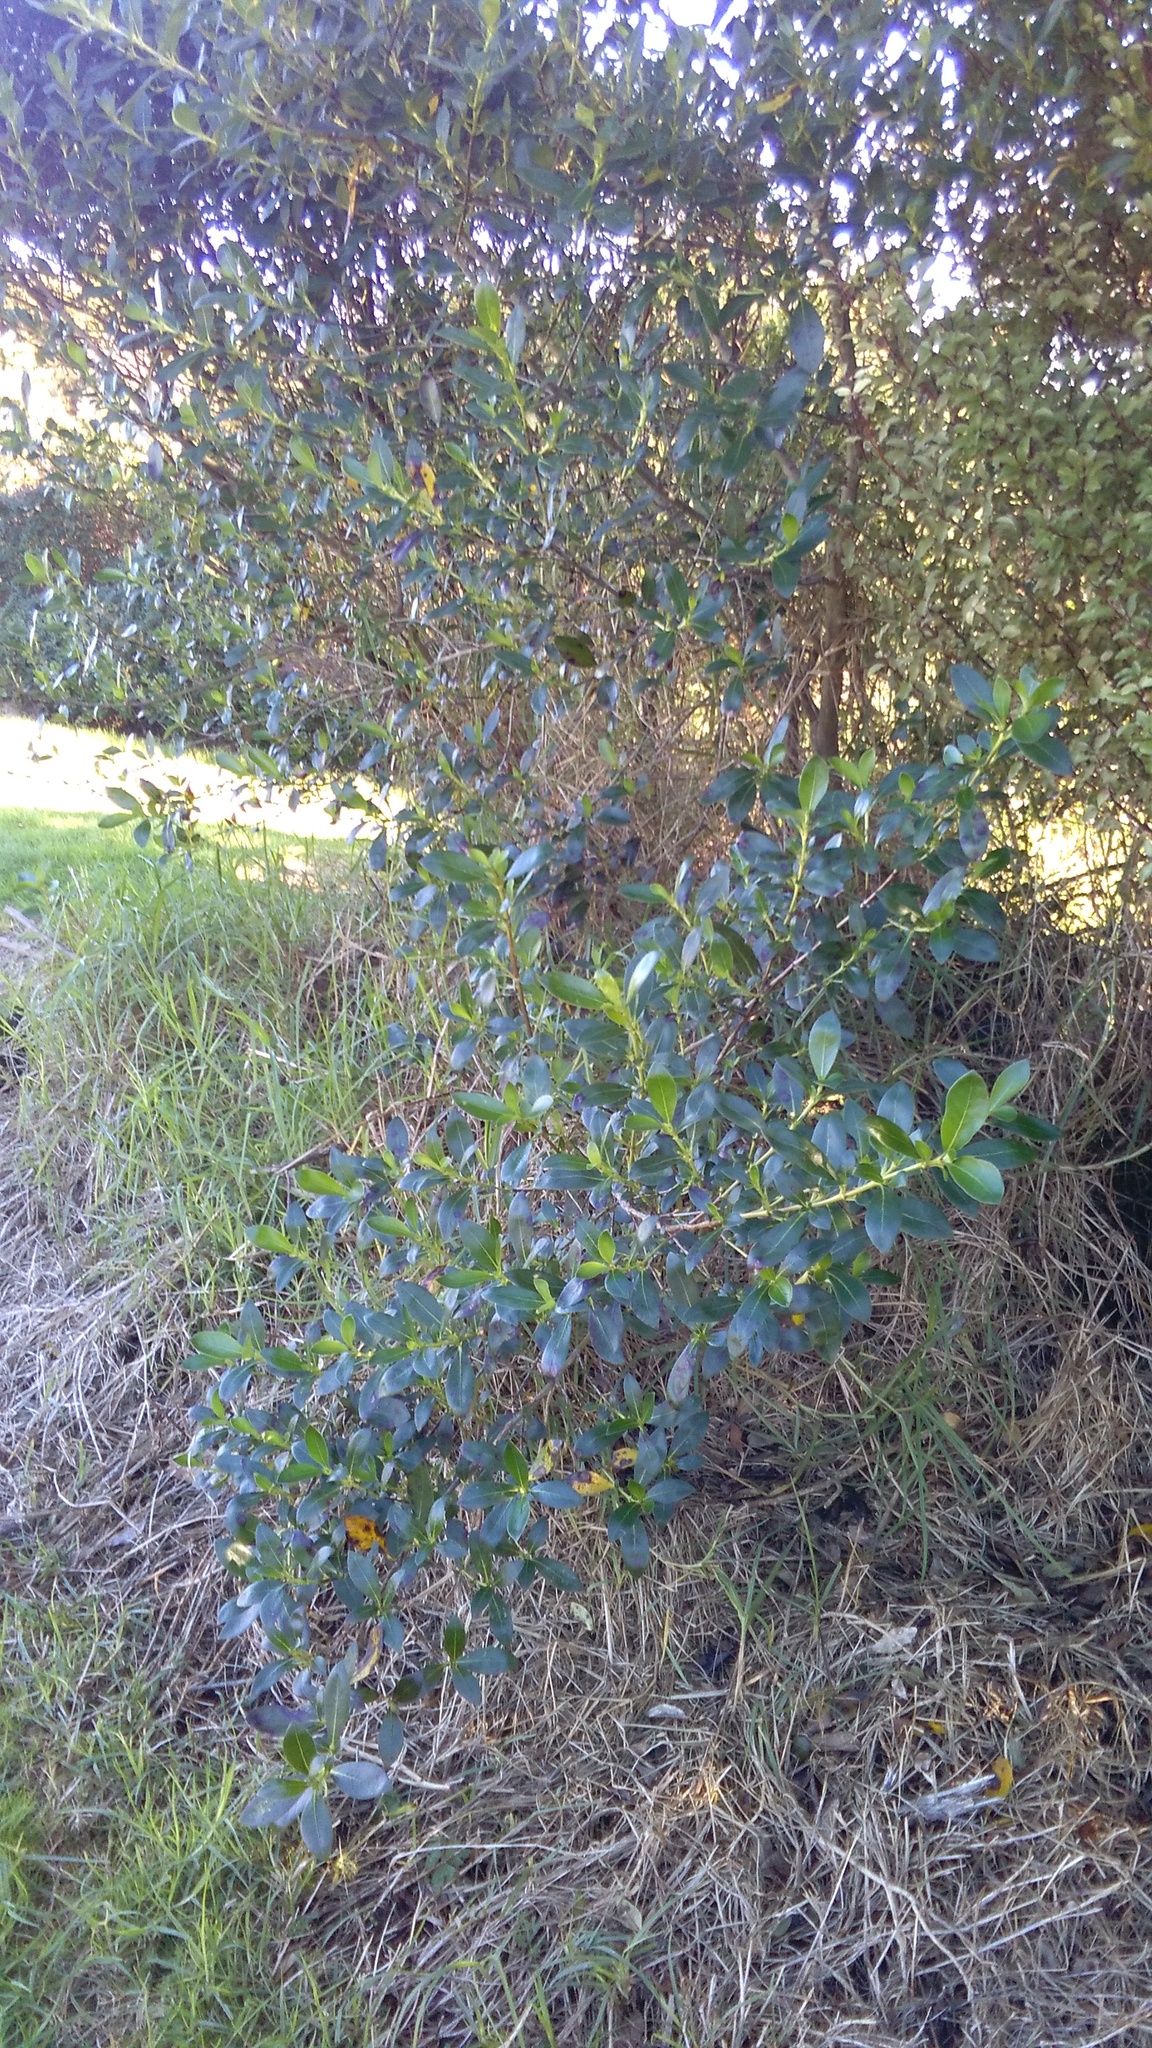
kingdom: Plantae
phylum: Tracheophyta
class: Liliopsida
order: Poales
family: Poaceae
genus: Cenchrus
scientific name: Cenchrus clandestinus
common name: Kikuyugrass
